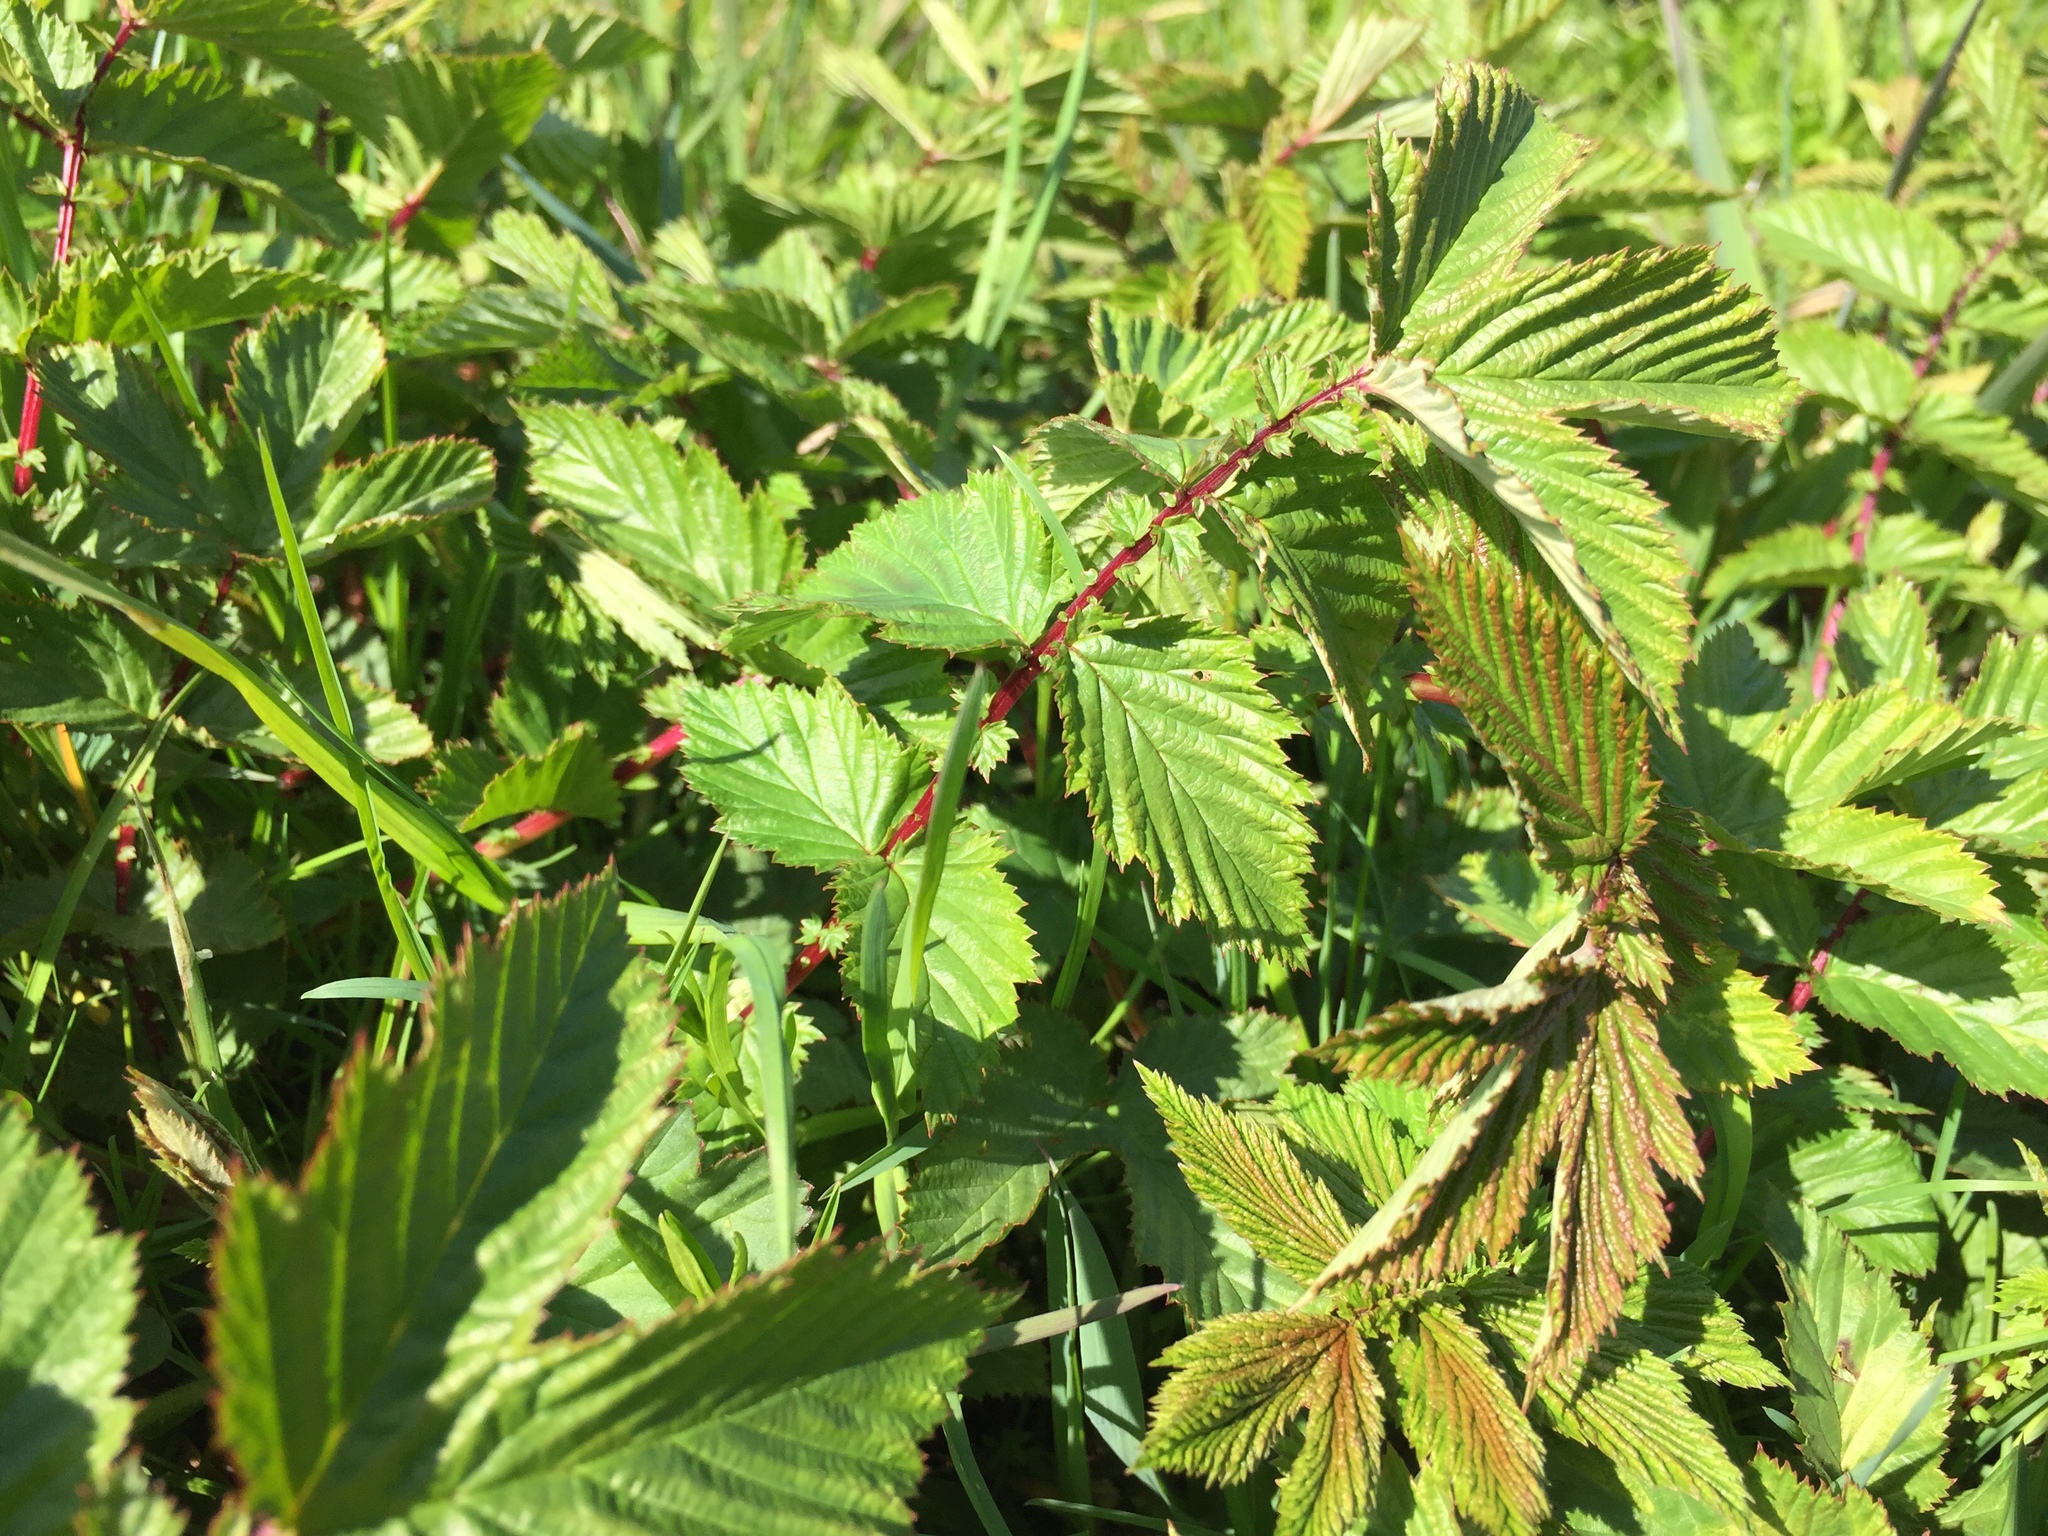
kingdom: Plantae
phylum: Tracheophyta
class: Magnoliopsida
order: Rosales
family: Rosaceae
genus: Filipendula
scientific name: Filipendula ulmaria
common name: Meadowsweet
